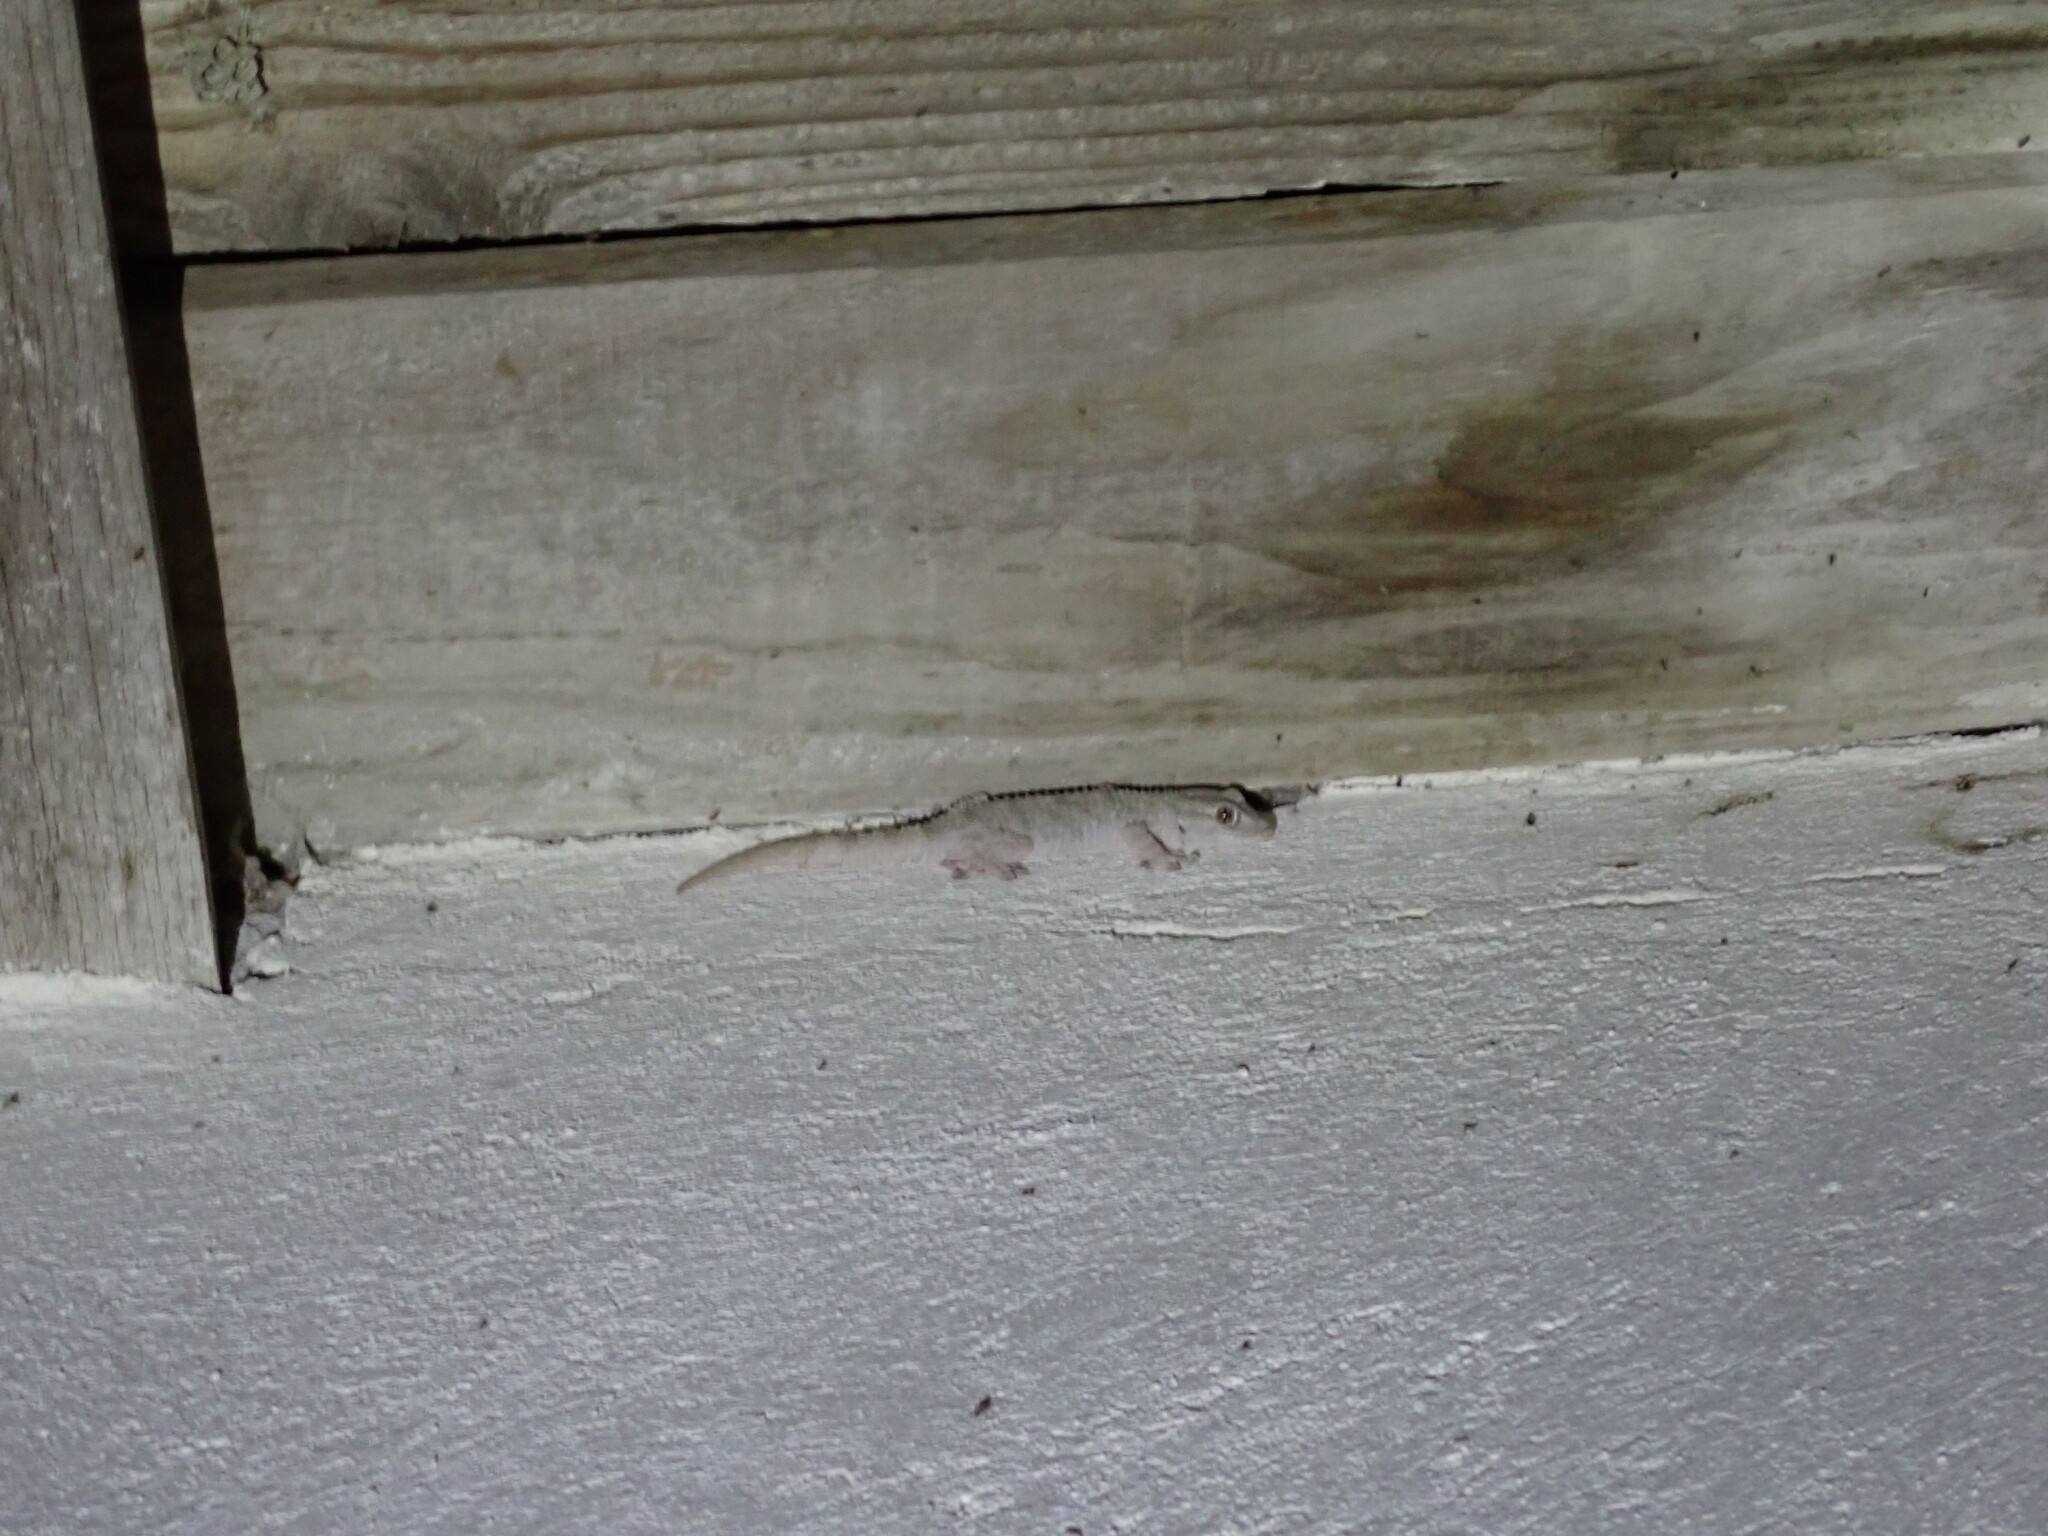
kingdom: Animalia
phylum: Chordata
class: Squamata
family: Phyllodactylidae
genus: Tarentola
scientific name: Tarentola mauritanica
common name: Moorish gecko
